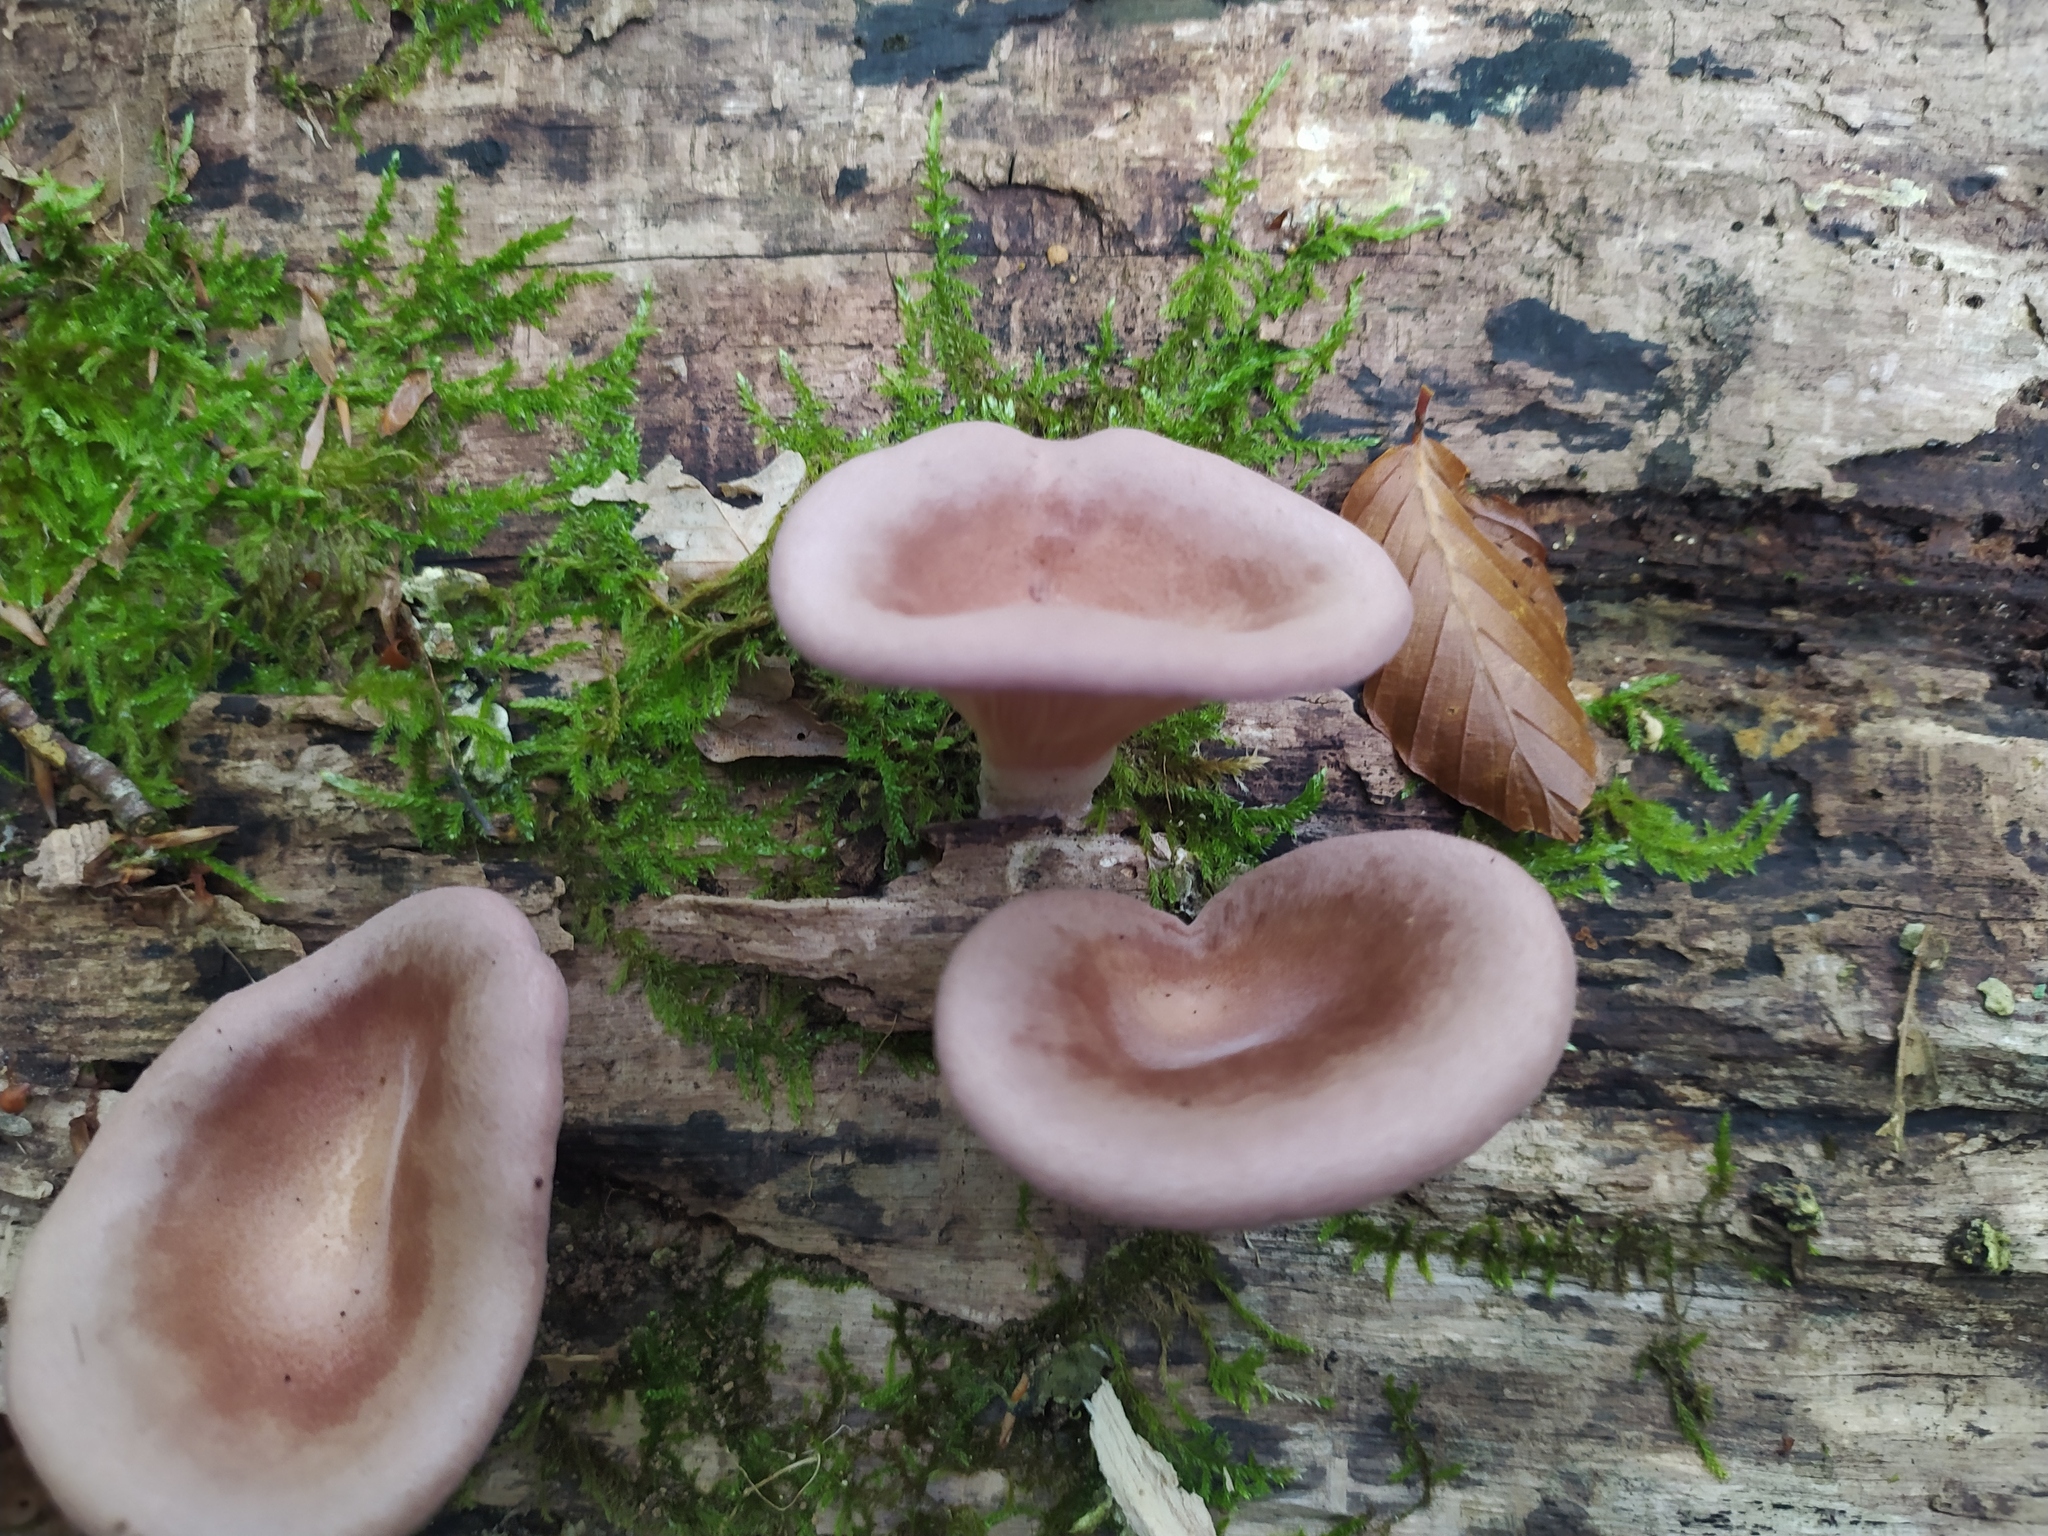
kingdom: Fungi
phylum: Basidiomycota
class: Agaricomycetes
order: Polyporales
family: Panaceae
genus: Panus
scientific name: Panus conchatus
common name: Lilac oysterling
